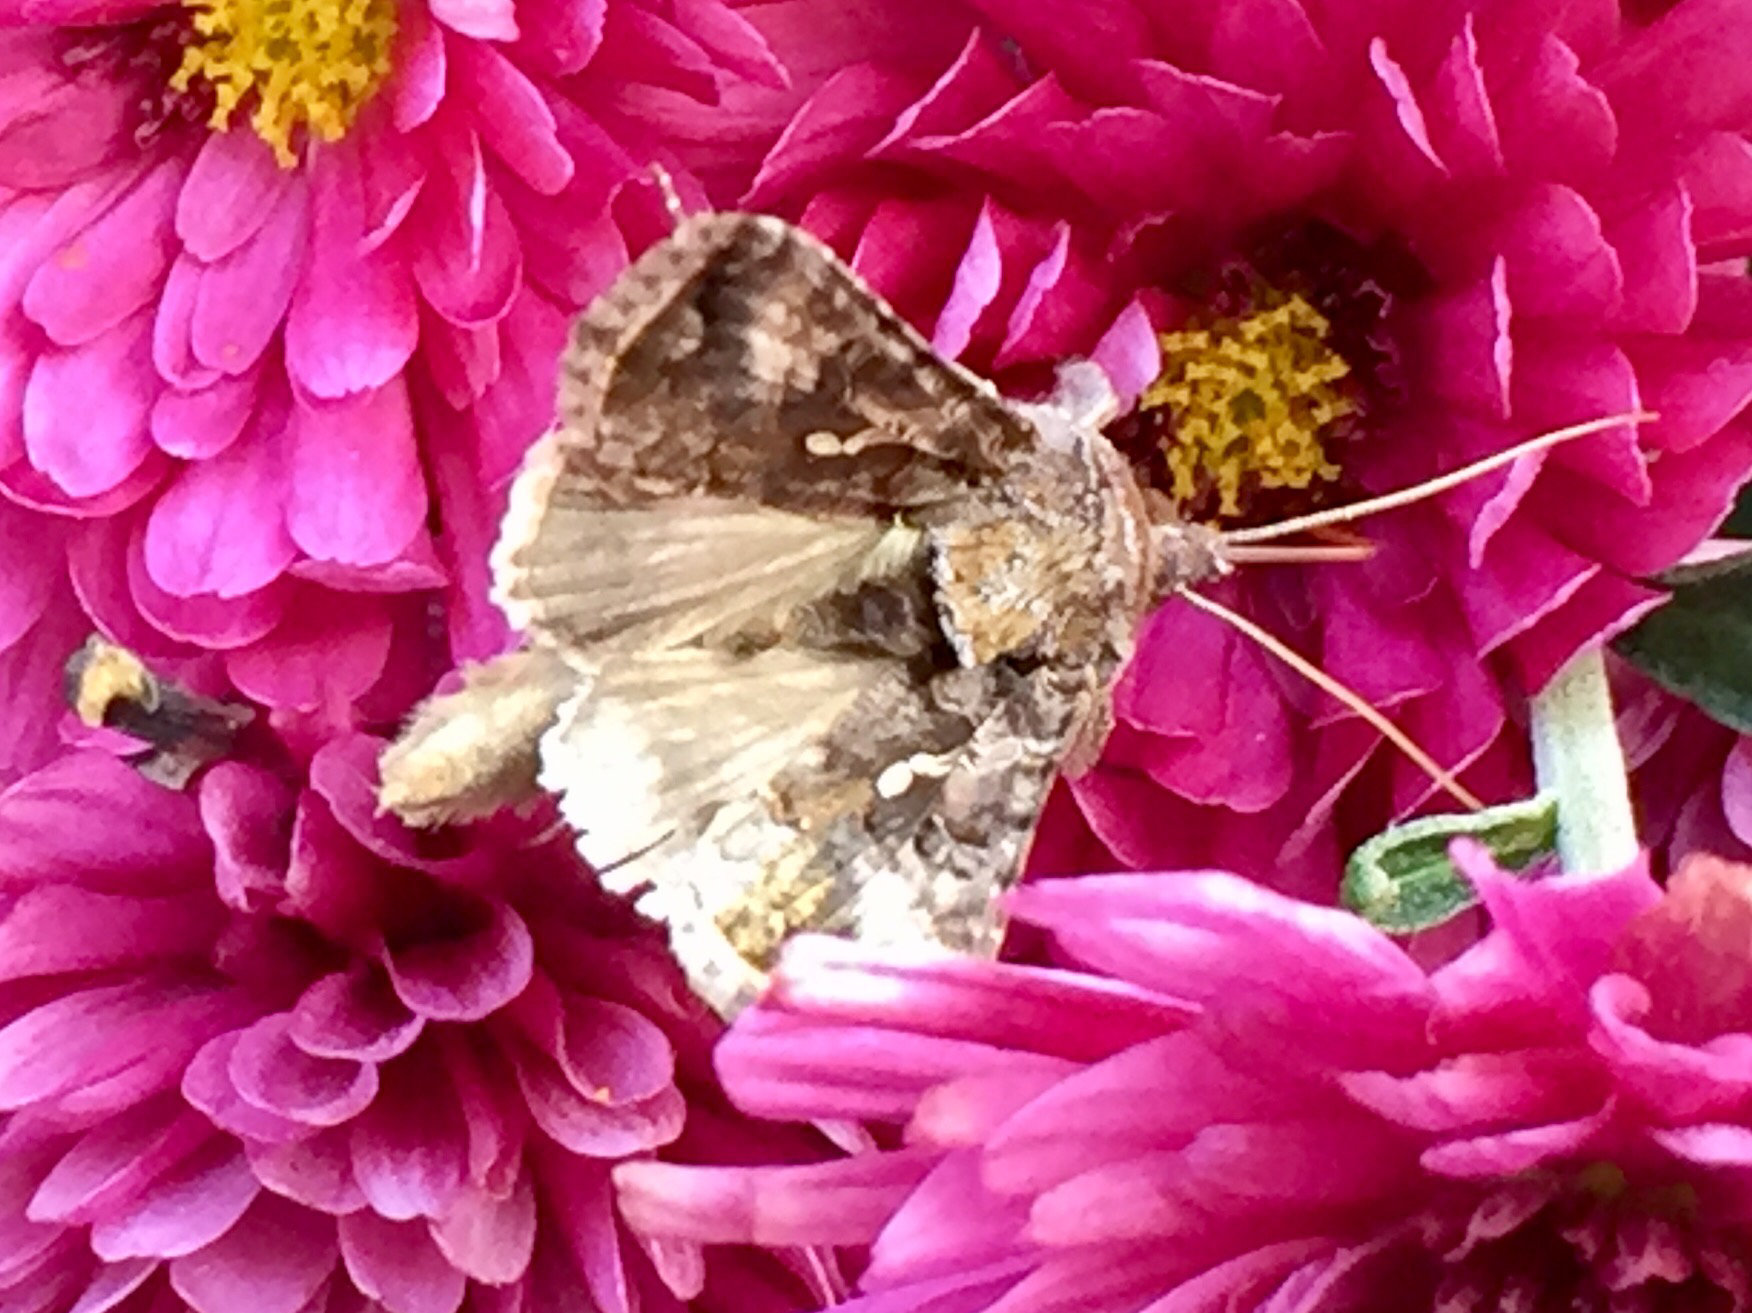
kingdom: Animalia
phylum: Arthropoda
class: Insecta
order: Lepidoptera
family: Noctuidae
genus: Autographa
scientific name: Autographa precationis
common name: Common looper moth
